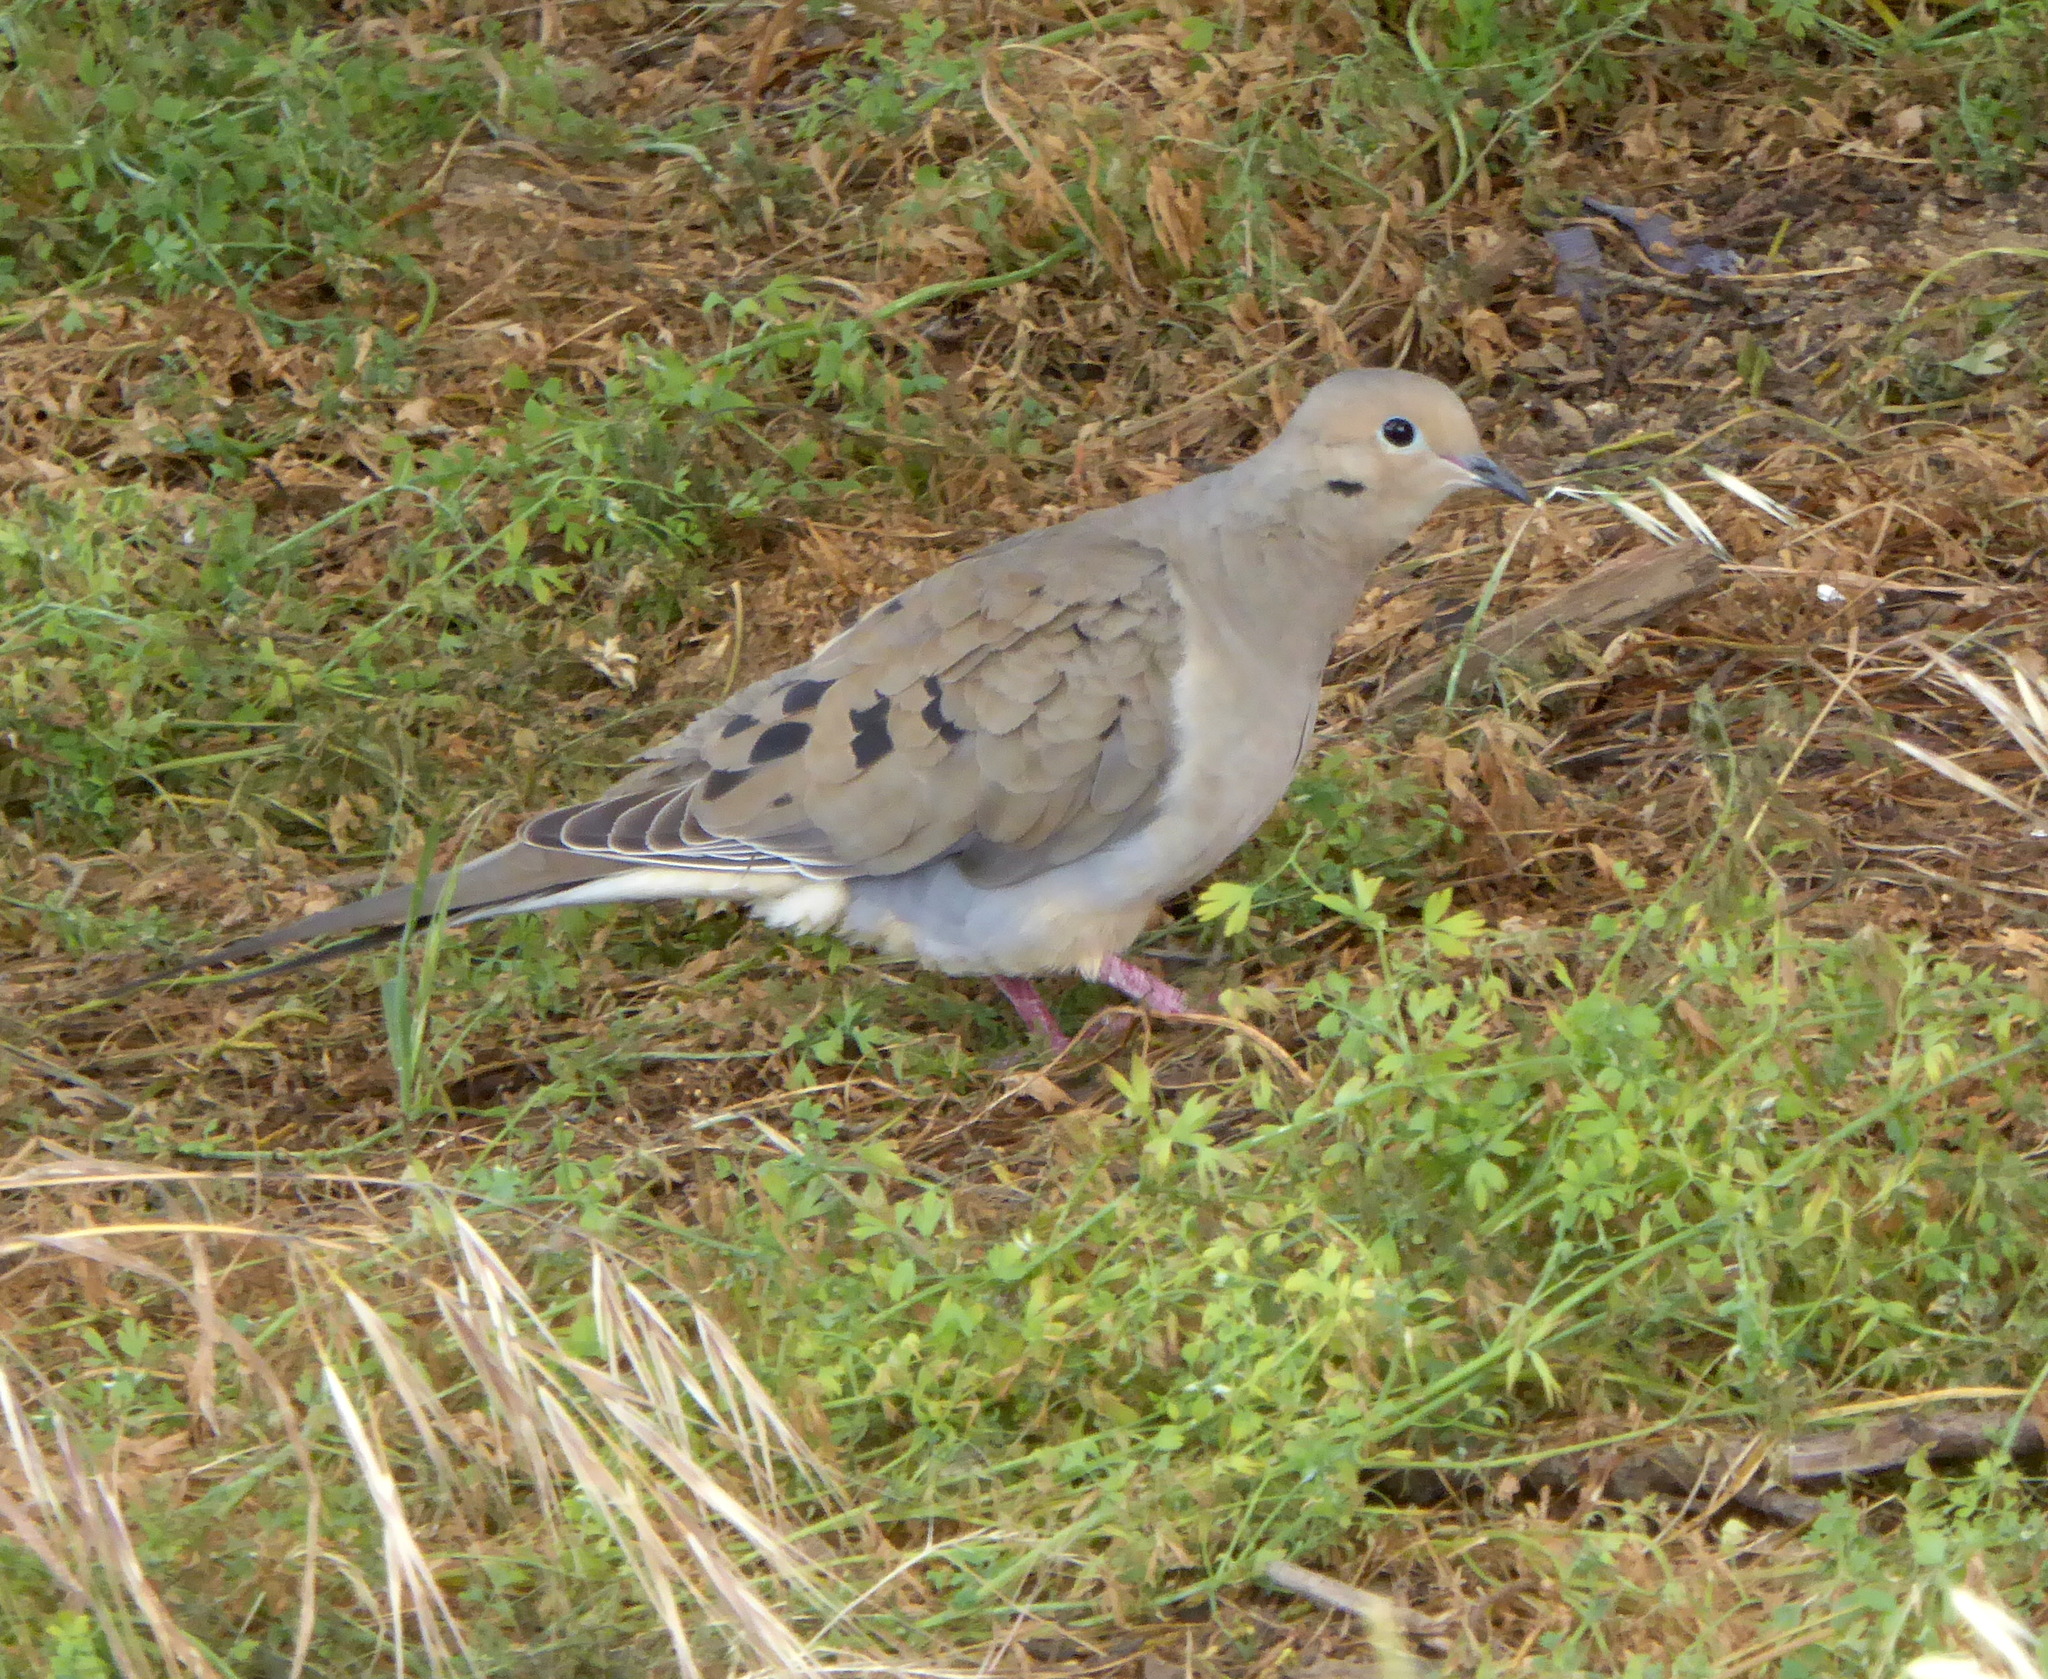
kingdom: Animalia
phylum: Chordata
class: Aves
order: Columbiformes
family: Columbidae
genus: Zenaida
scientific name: Zenaida macroura
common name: Mourning dove
